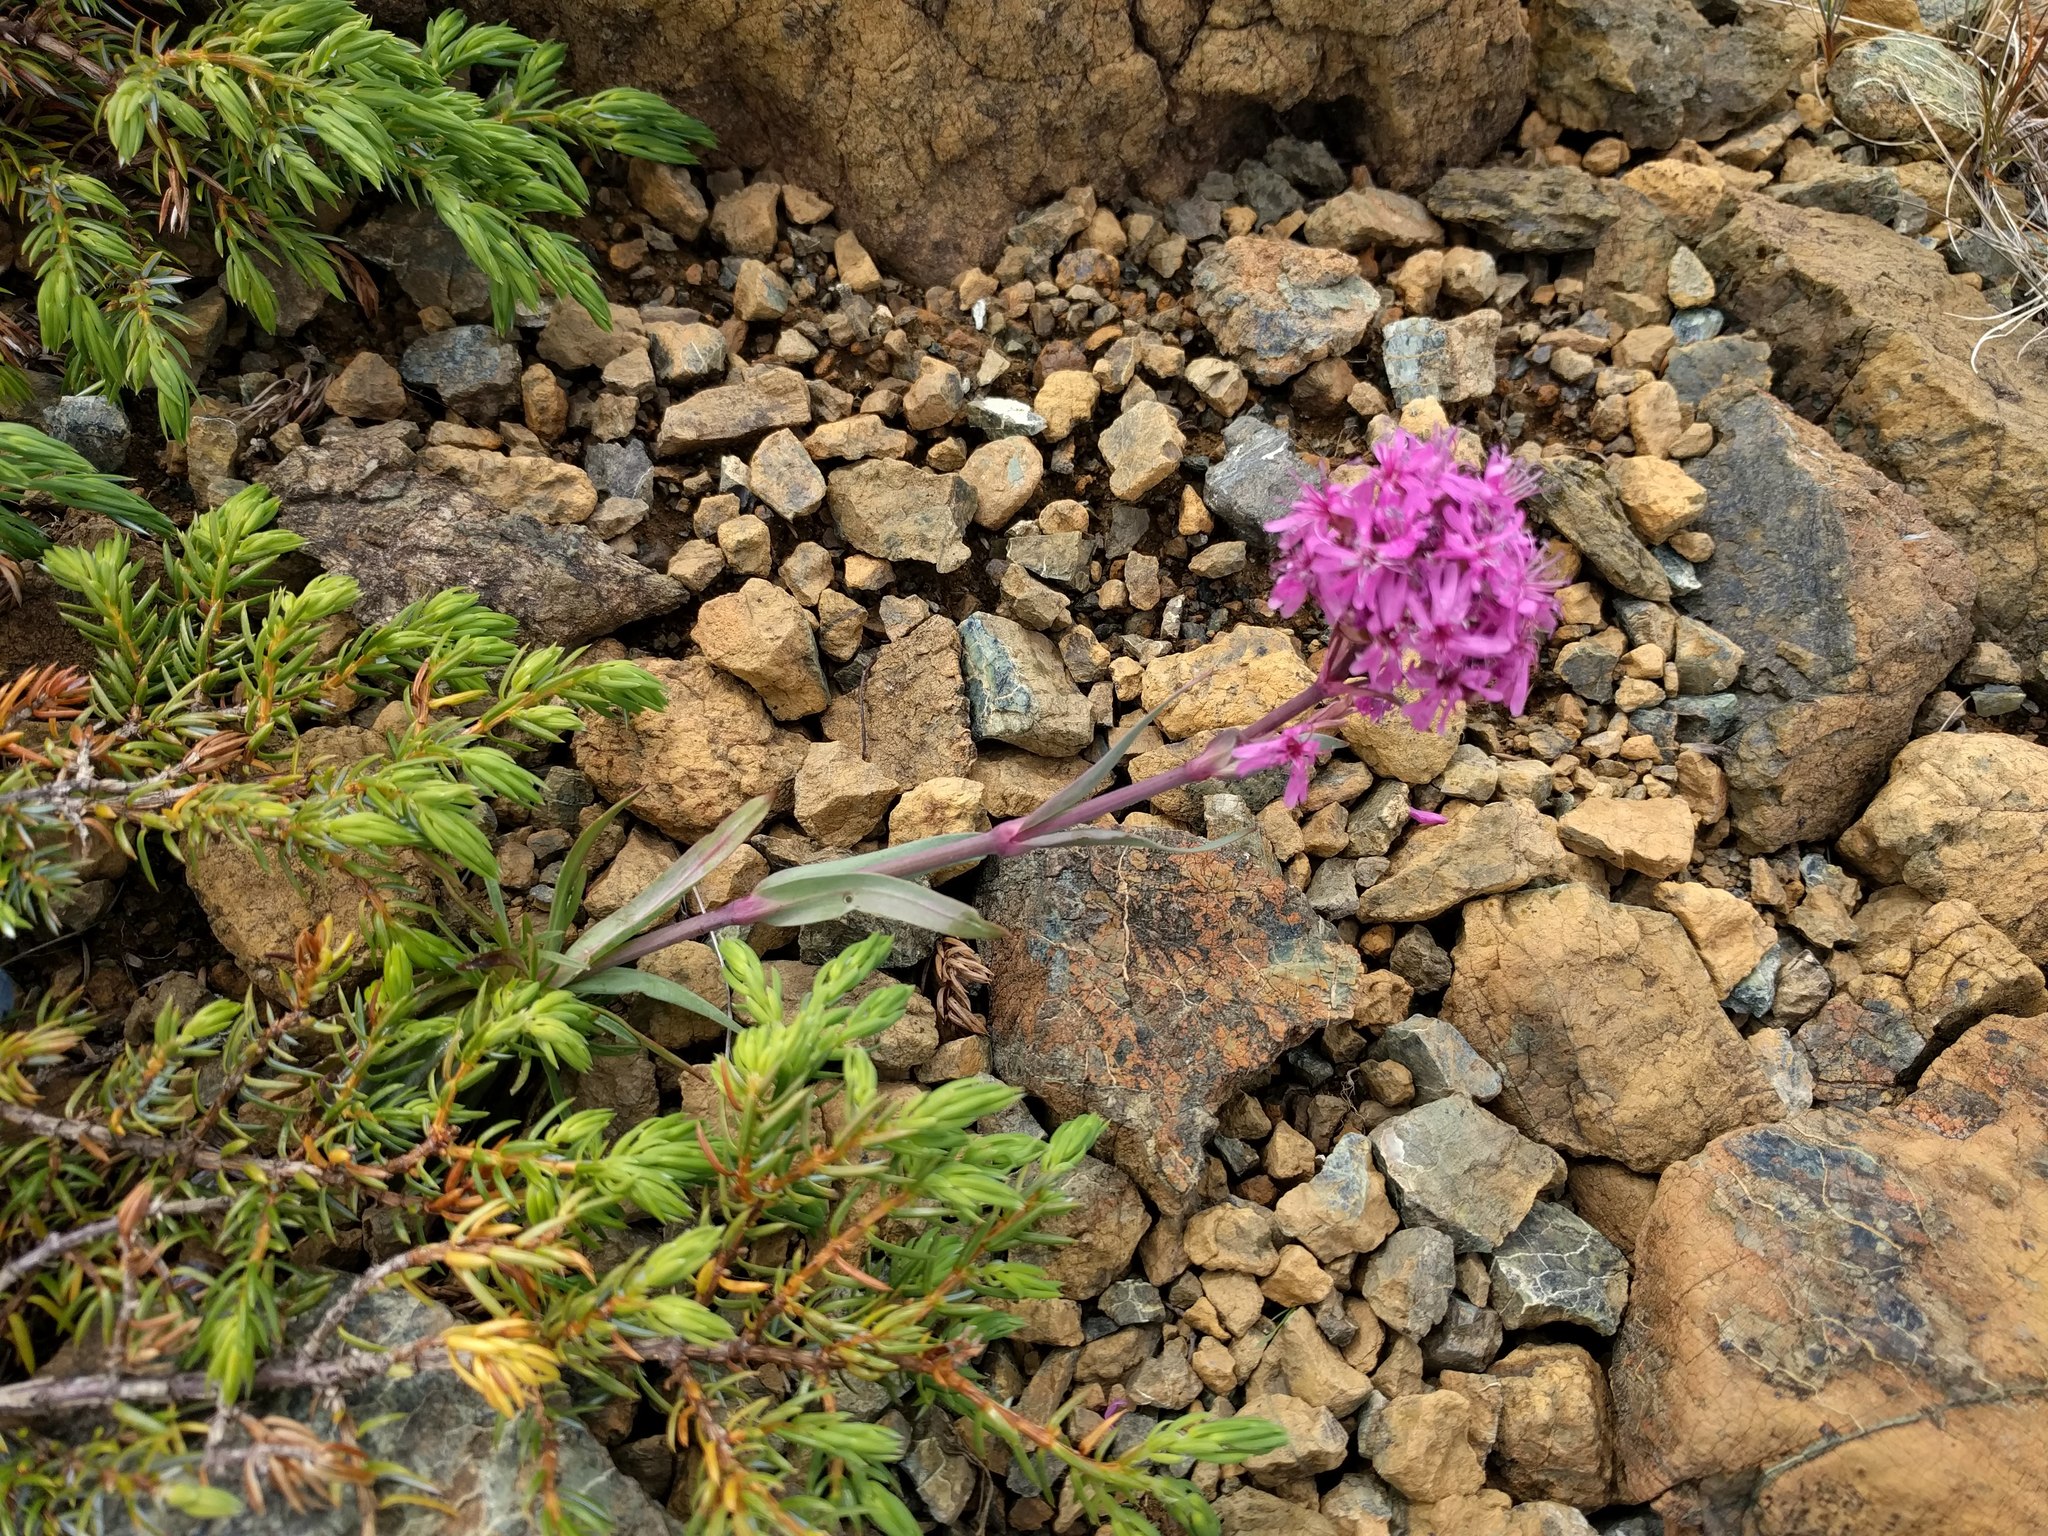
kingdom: Plantae
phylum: Tracheophyta
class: Magnoliopsida
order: Caryophyllales
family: Caryophyllaceae
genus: Viscaria
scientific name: Viscaria alpina
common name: Alpine campion
